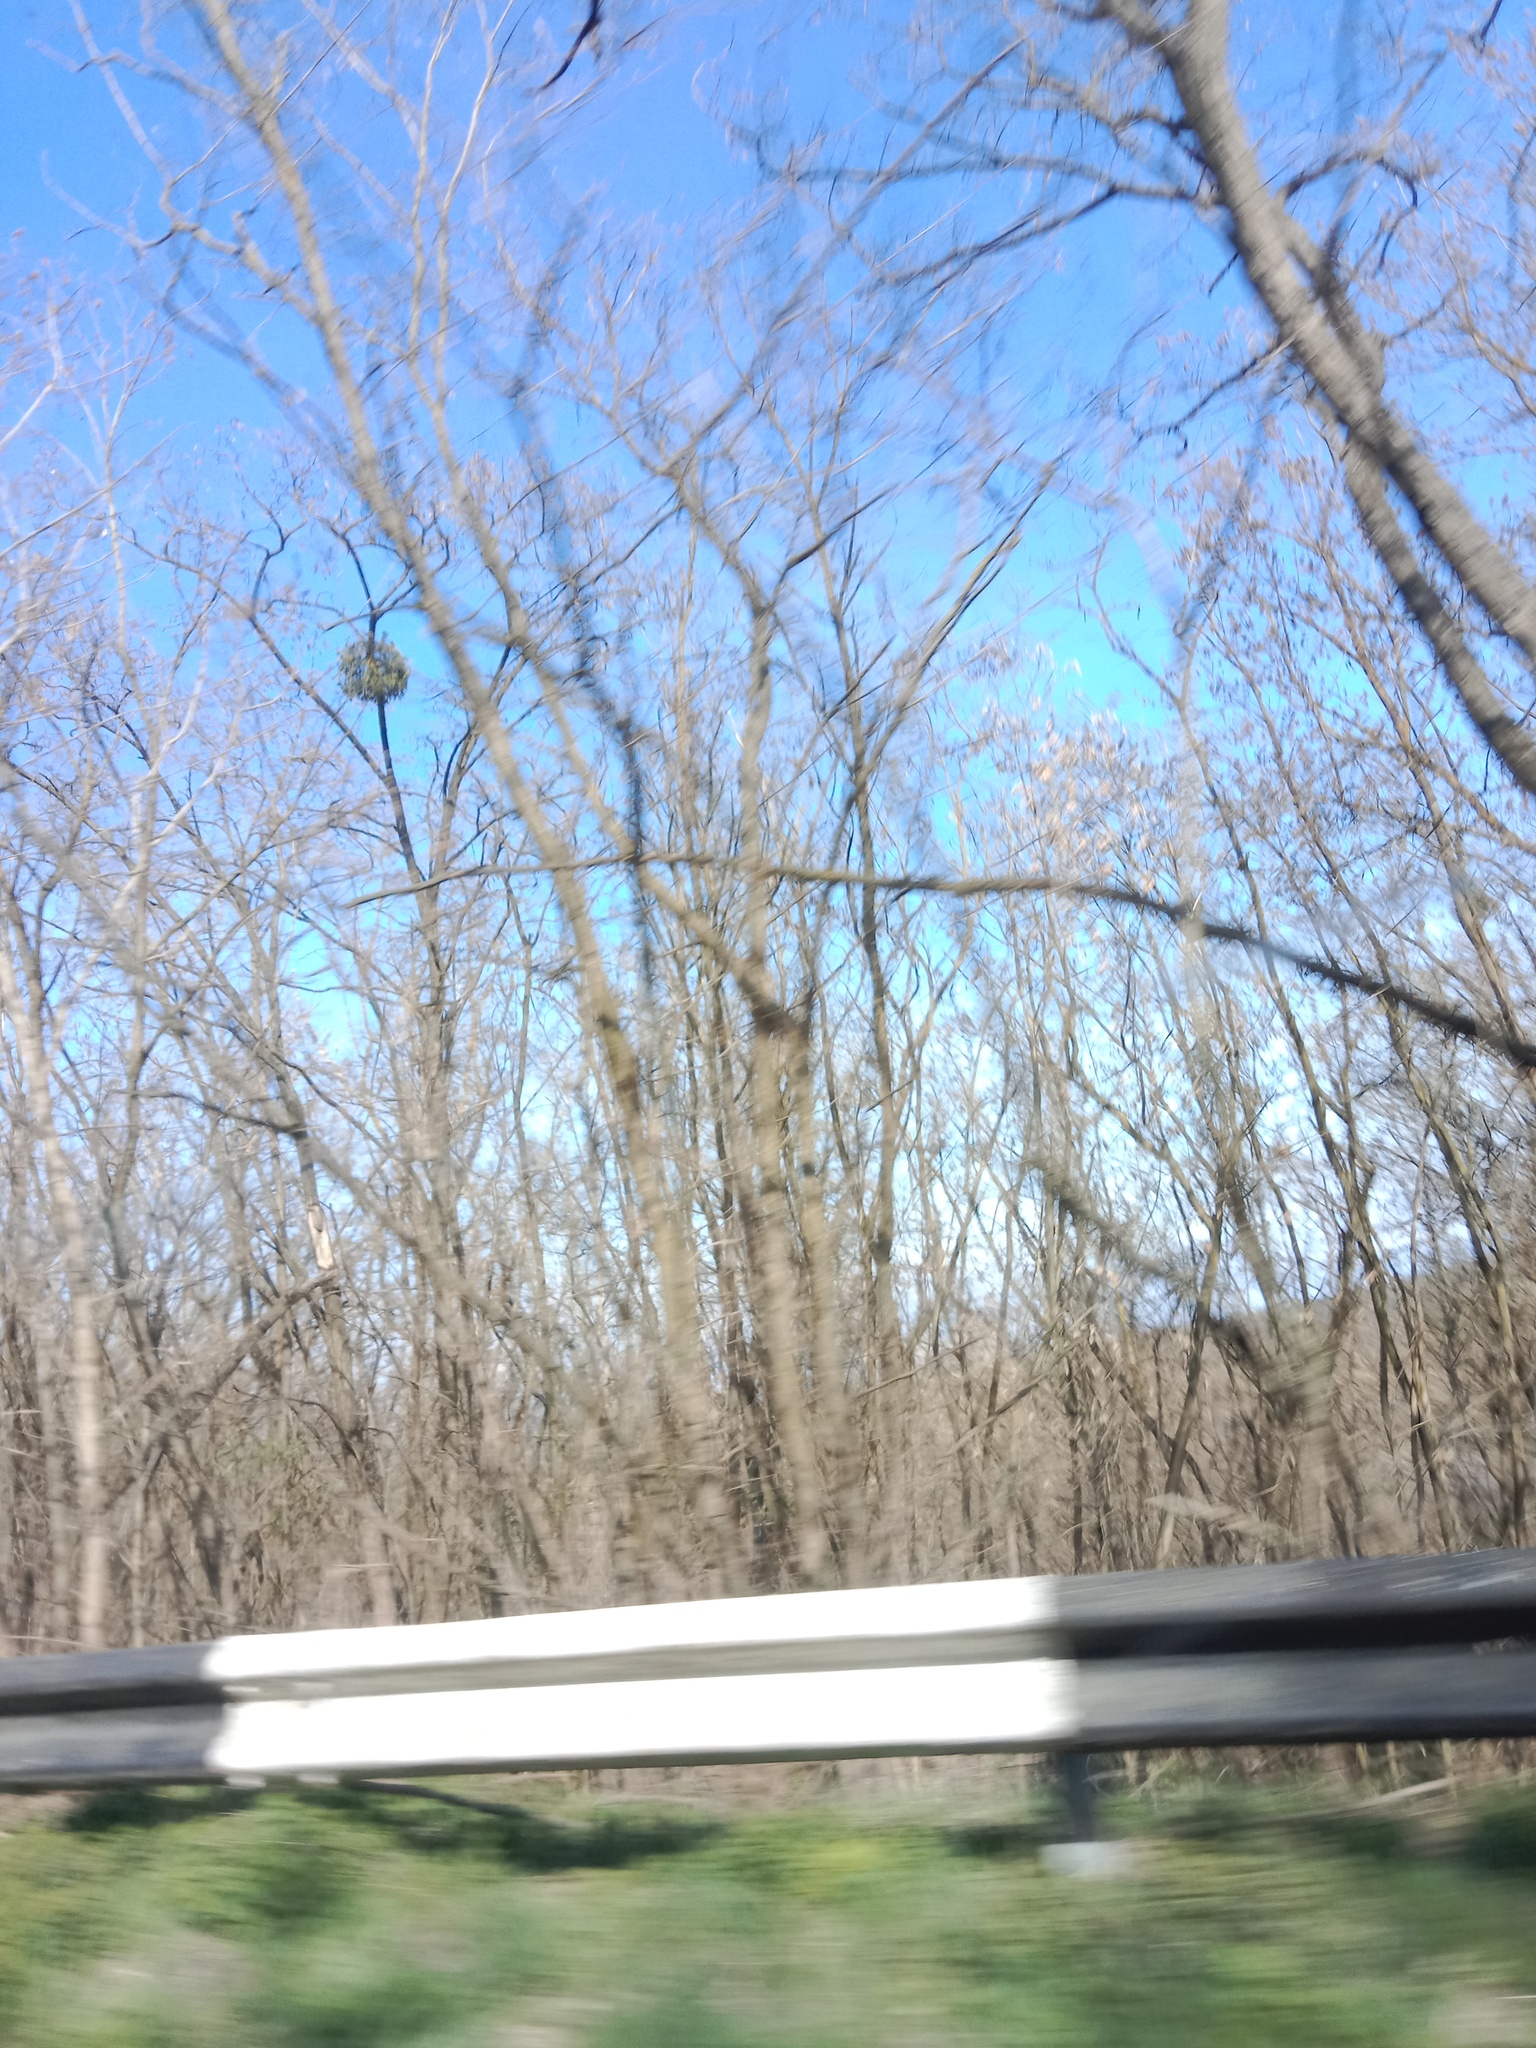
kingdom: Plantae
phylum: Tracheophyta
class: Magnoliopsida
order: Santalales
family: Viscaceae
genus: Viscum
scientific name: Viscum album
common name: Mistletoe
